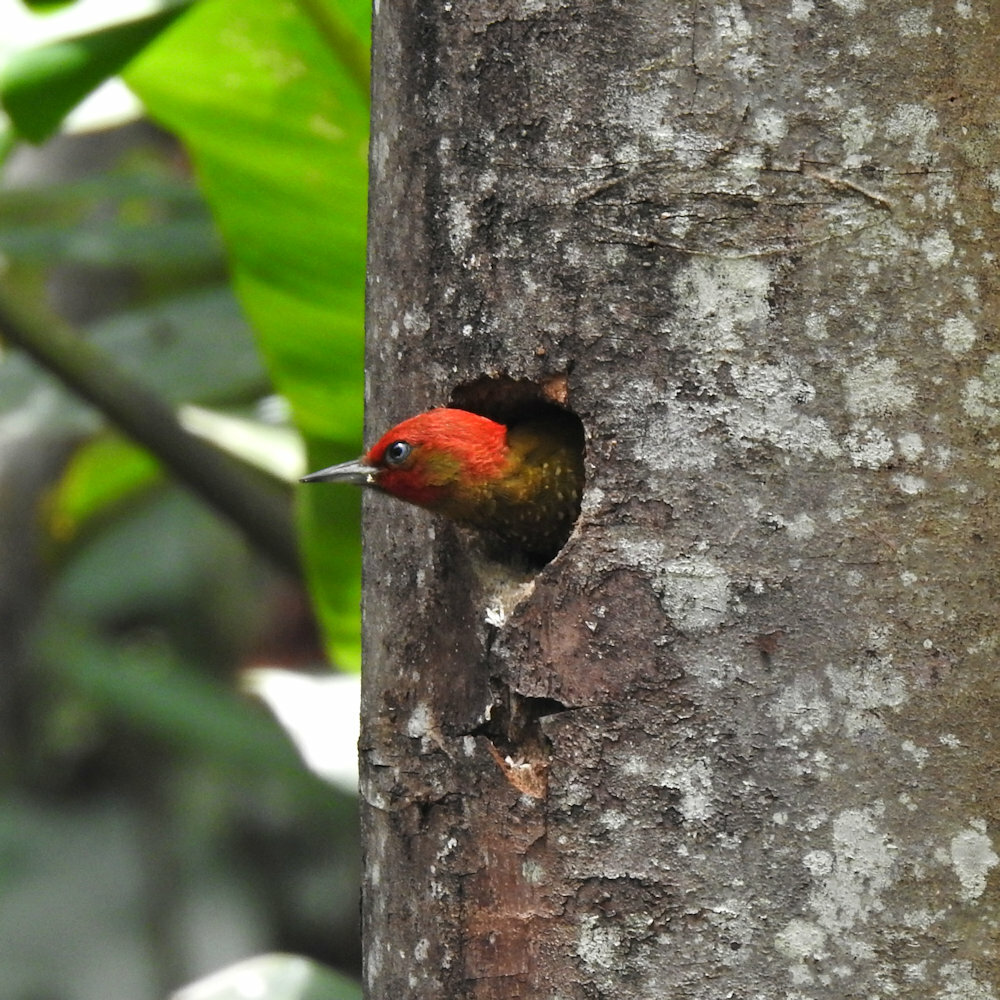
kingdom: Animalia
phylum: Chordata
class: Aves
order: Piciformes
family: Picidae
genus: Piculus
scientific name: Piculus simplex
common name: Rufous-winged woodpecker
